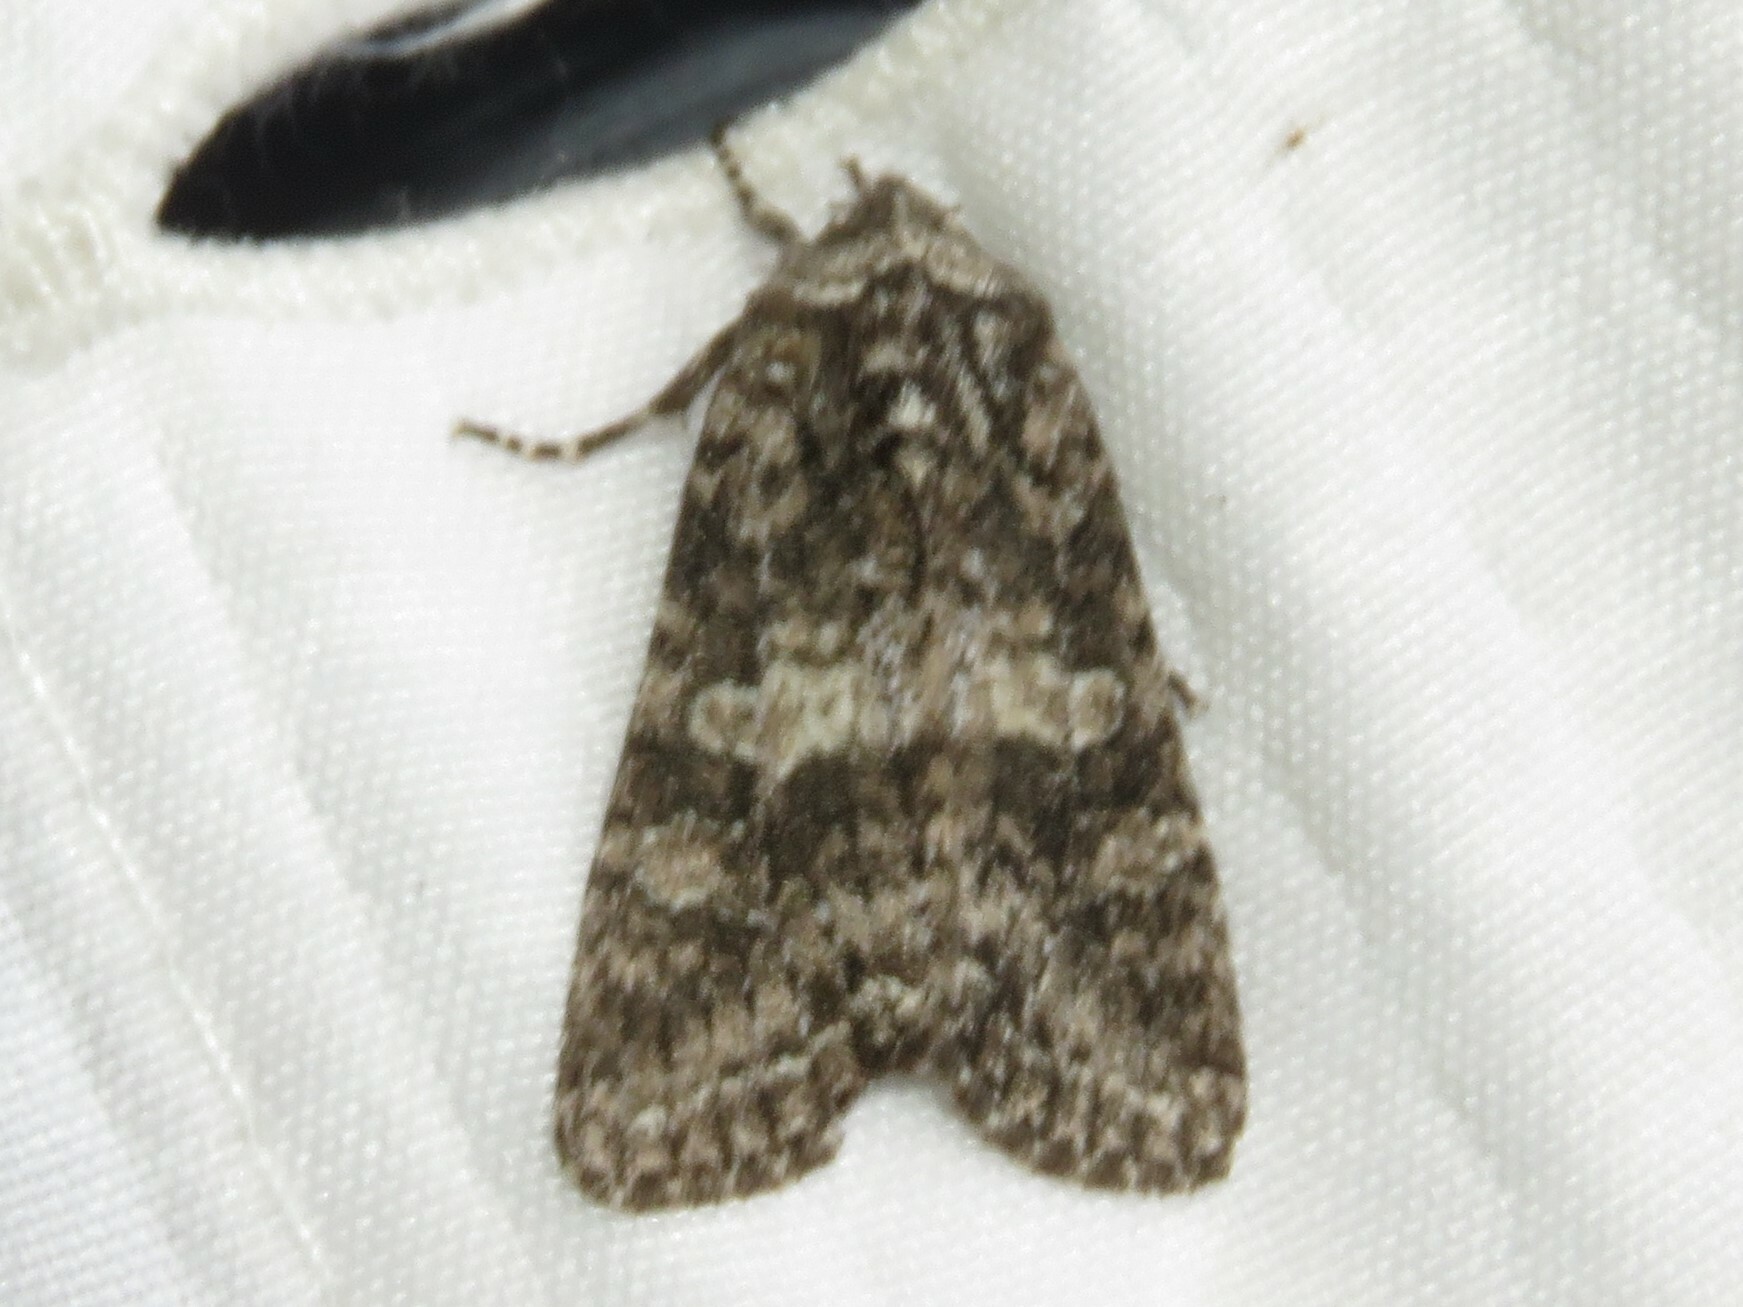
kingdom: Animalia
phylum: Arthropoda
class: Insecta
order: Lepidoptera
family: Noctuidae
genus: Egira
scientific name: Egira dolosa
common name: Lined black aspen cat.
